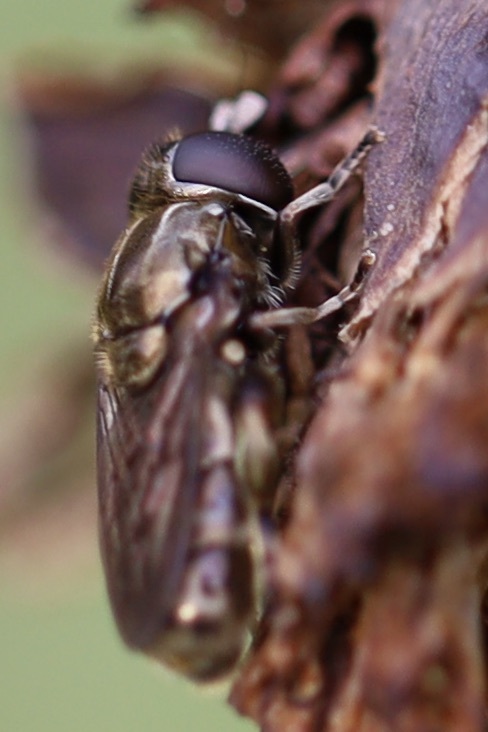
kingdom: Animalia
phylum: Arthropoda
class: Insecta
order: Diptera
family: Syrphidae
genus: Eumerus
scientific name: Eumerus
